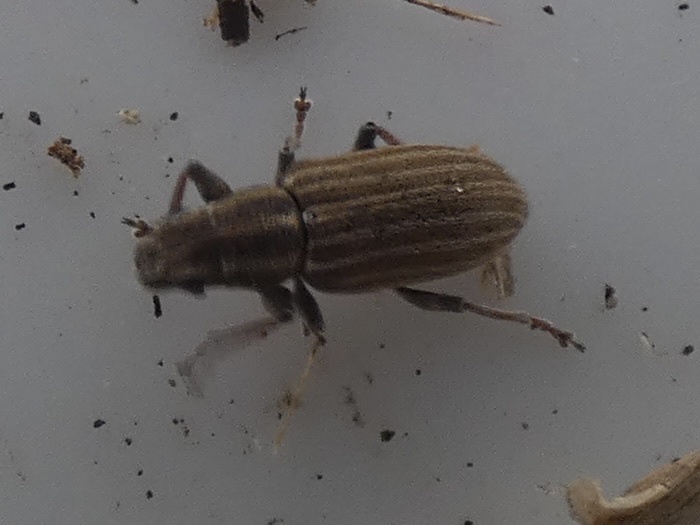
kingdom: Animalia
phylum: Arthropoda
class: Insecta
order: Coleoptera
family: Curculionidae
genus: Sitona
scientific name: Sitona lineatus
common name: Weevil
